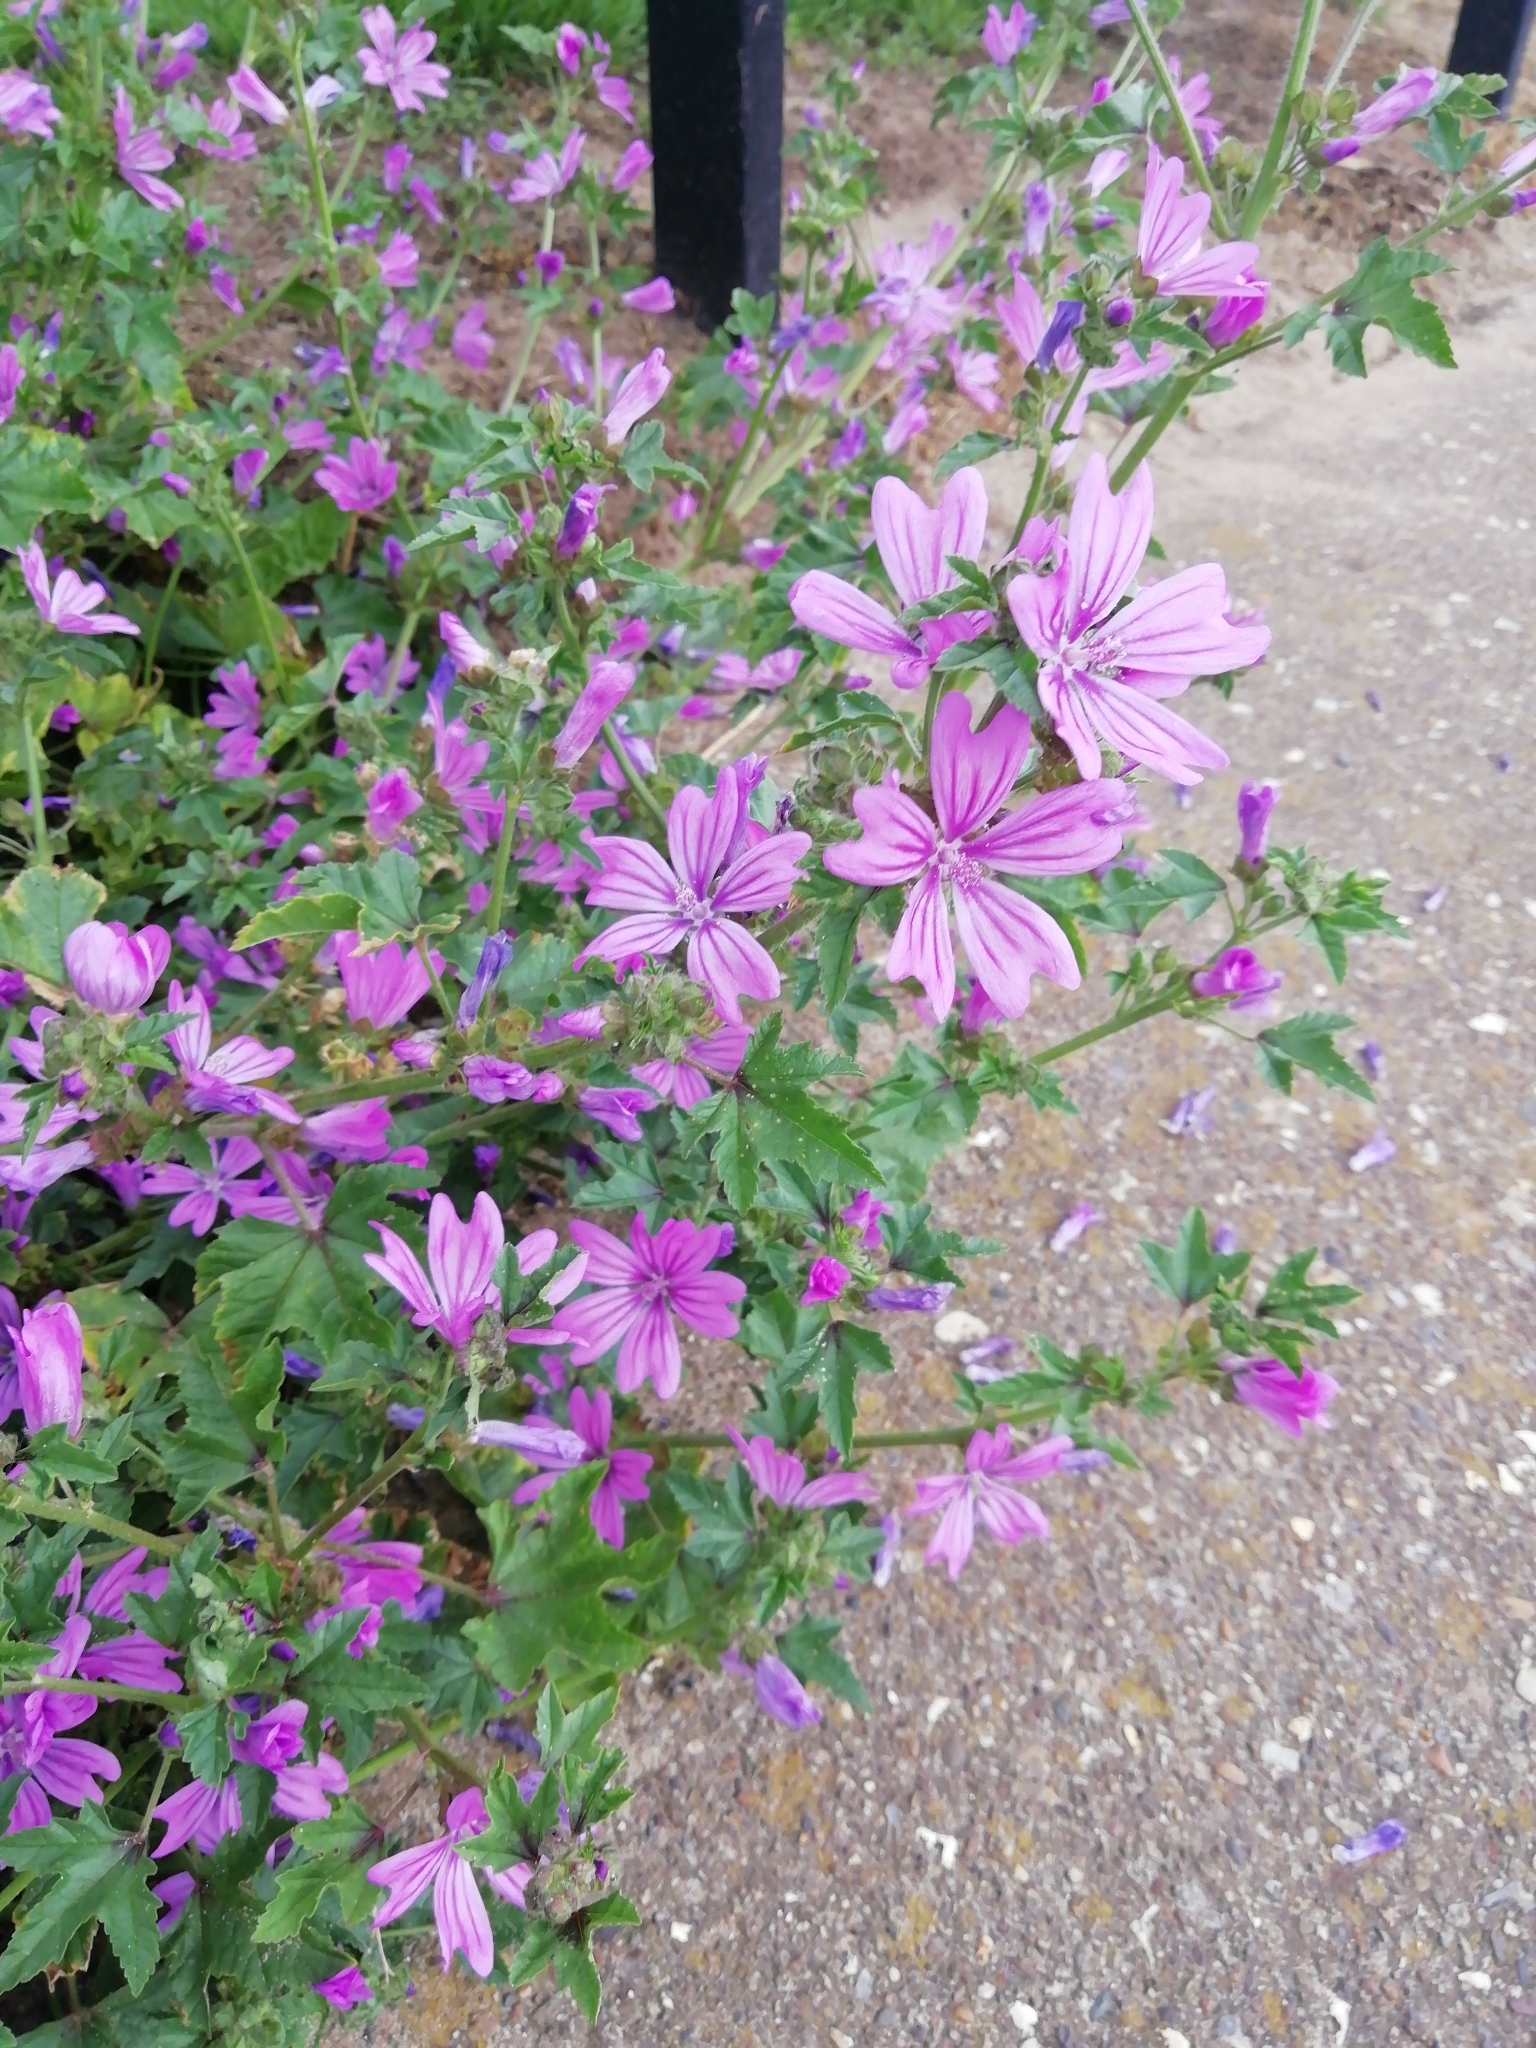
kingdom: Plantae
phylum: Tracheophyta
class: Magnoliopsida
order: Malvales
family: Malvaceae
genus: Malva
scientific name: Malva sylvestris
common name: Common mallow
